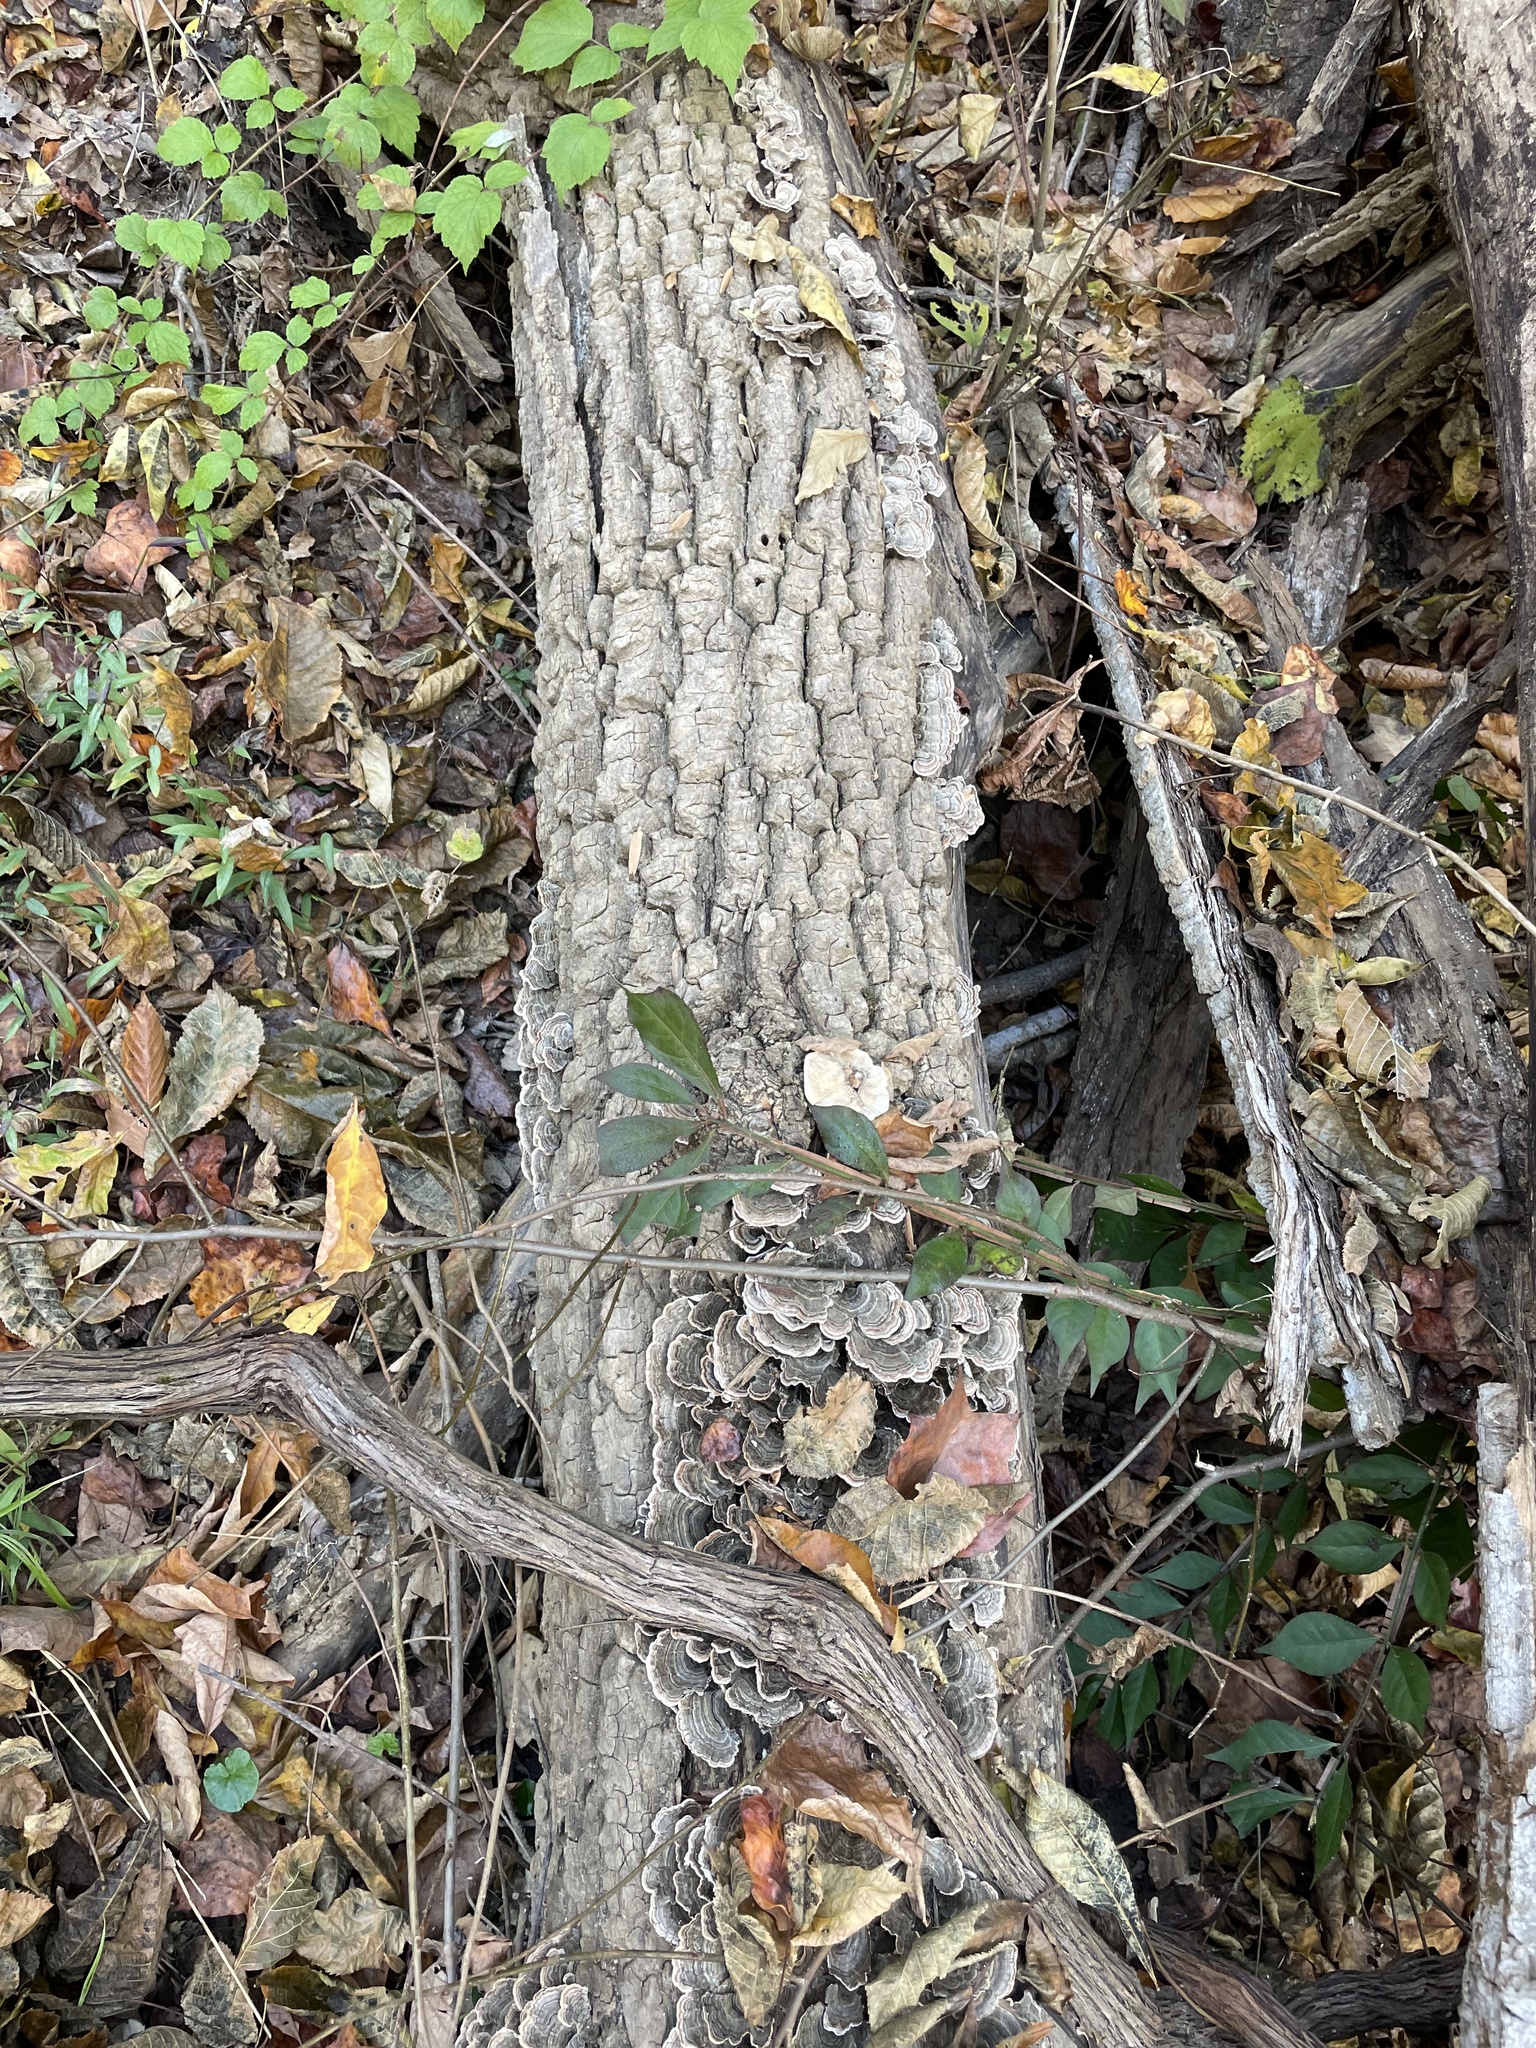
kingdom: Fungi
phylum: Basidiomycota
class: Agaricomycetes
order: Polyporales
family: Polyporaceae
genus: Trametes
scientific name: Trametes versicolor
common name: Turkeytail
